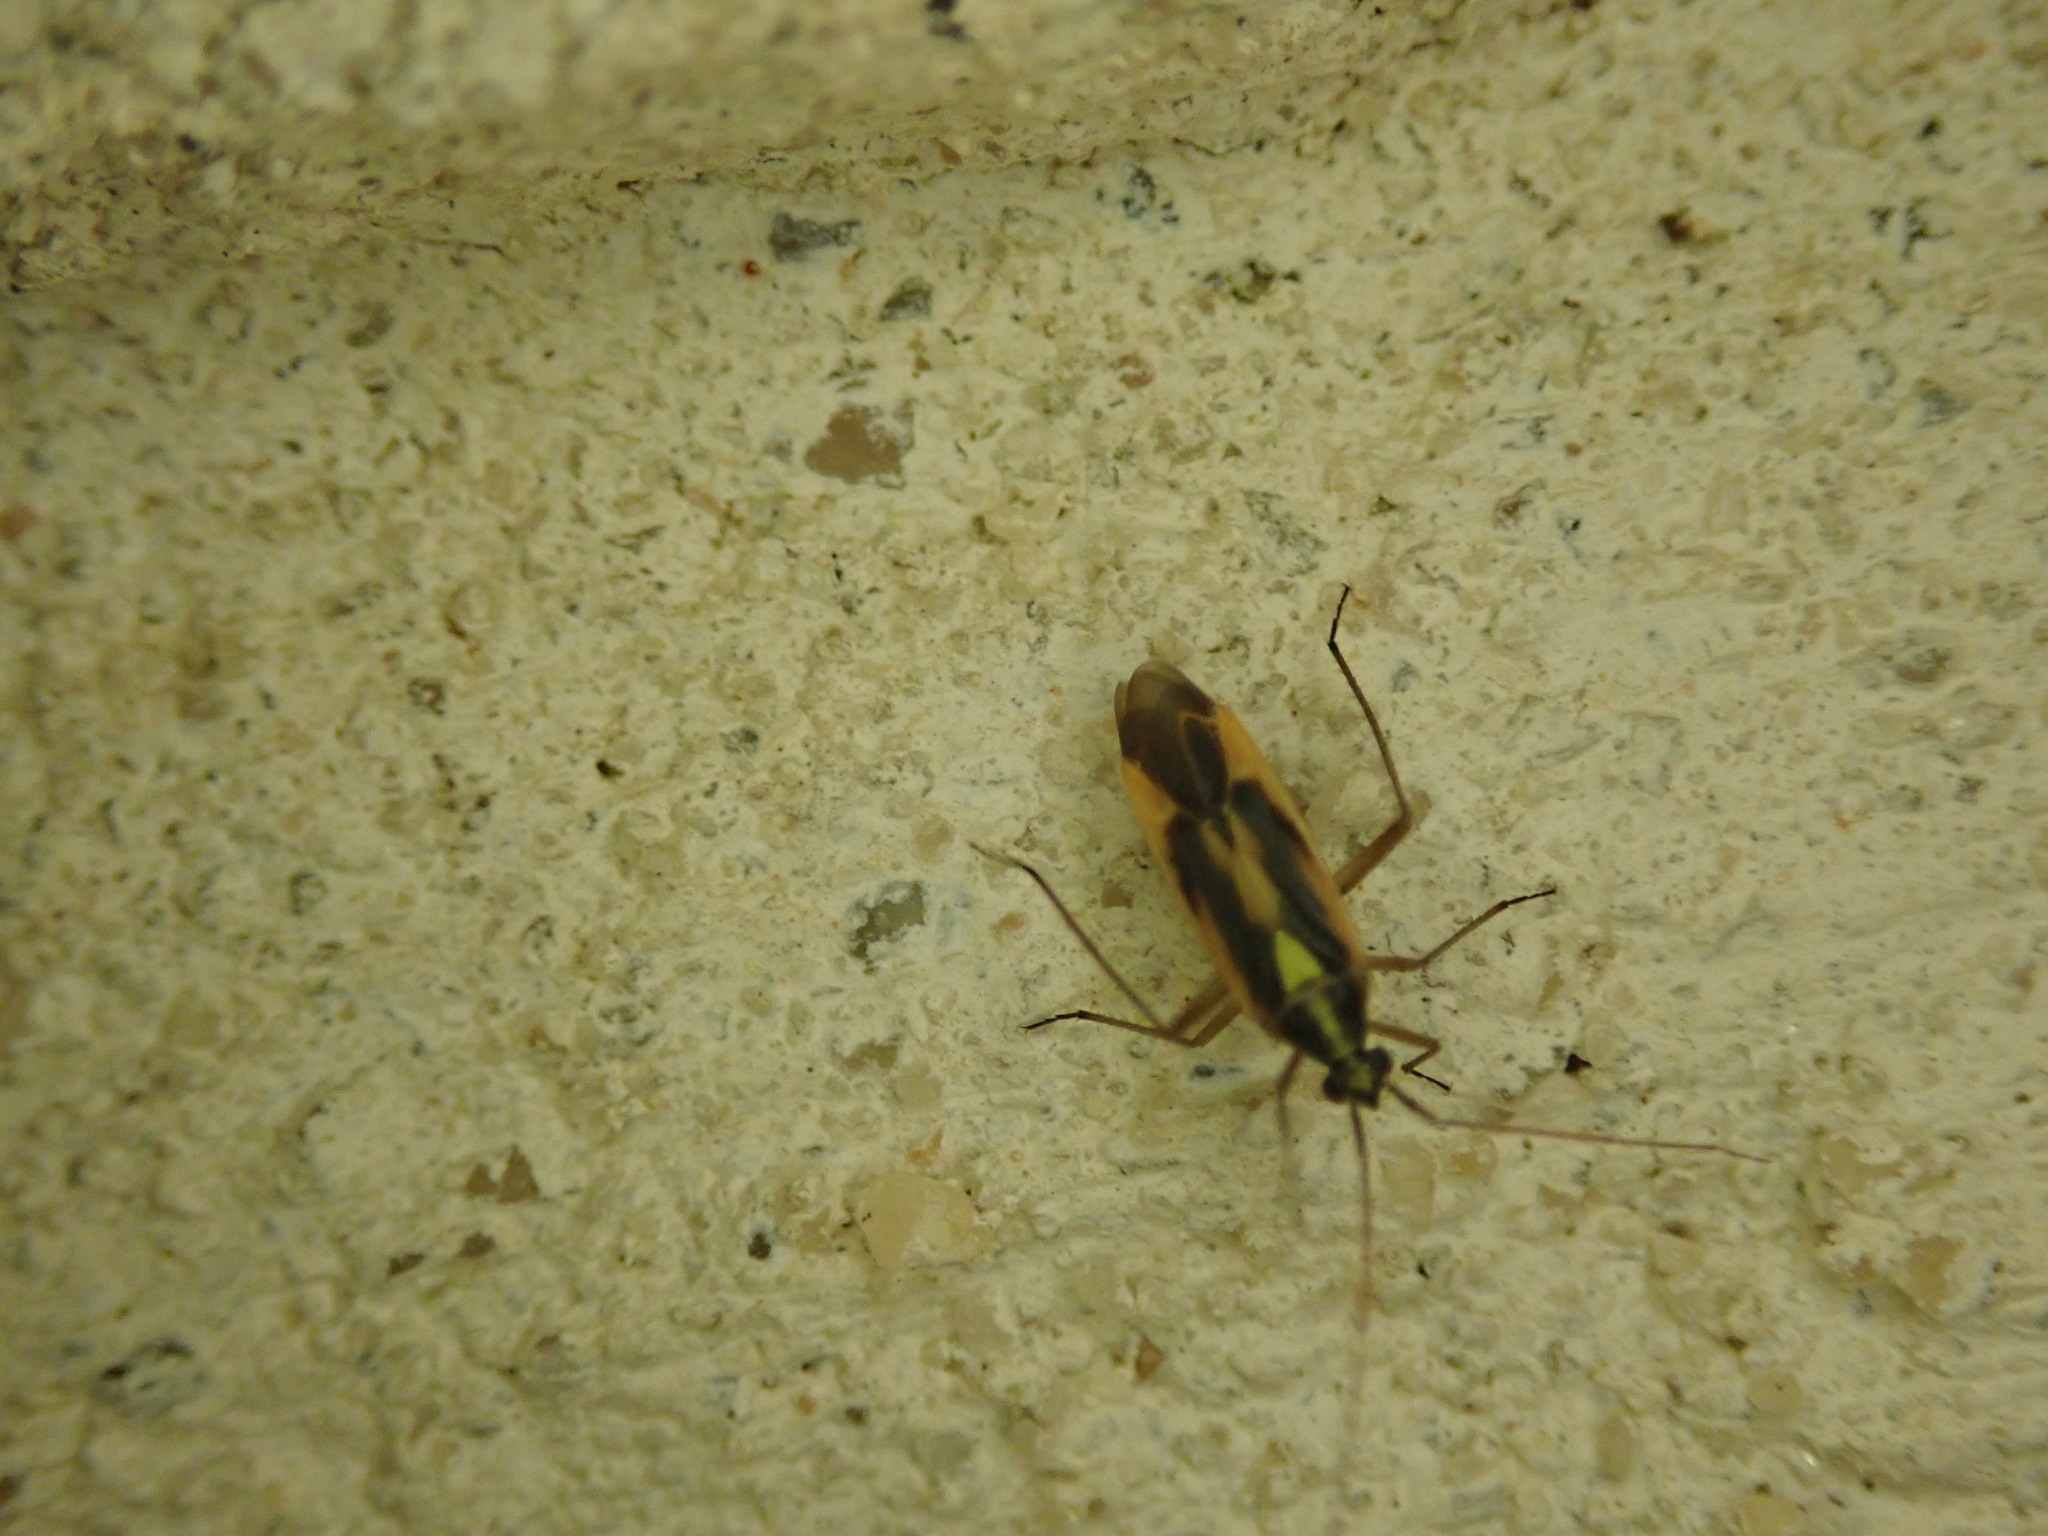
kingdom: Animalia
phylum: Arthropoda
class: Insecta
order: Hemiptera
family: Miridae
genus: Stenotus
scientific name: Stenotus binotatus
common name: Plant bug
